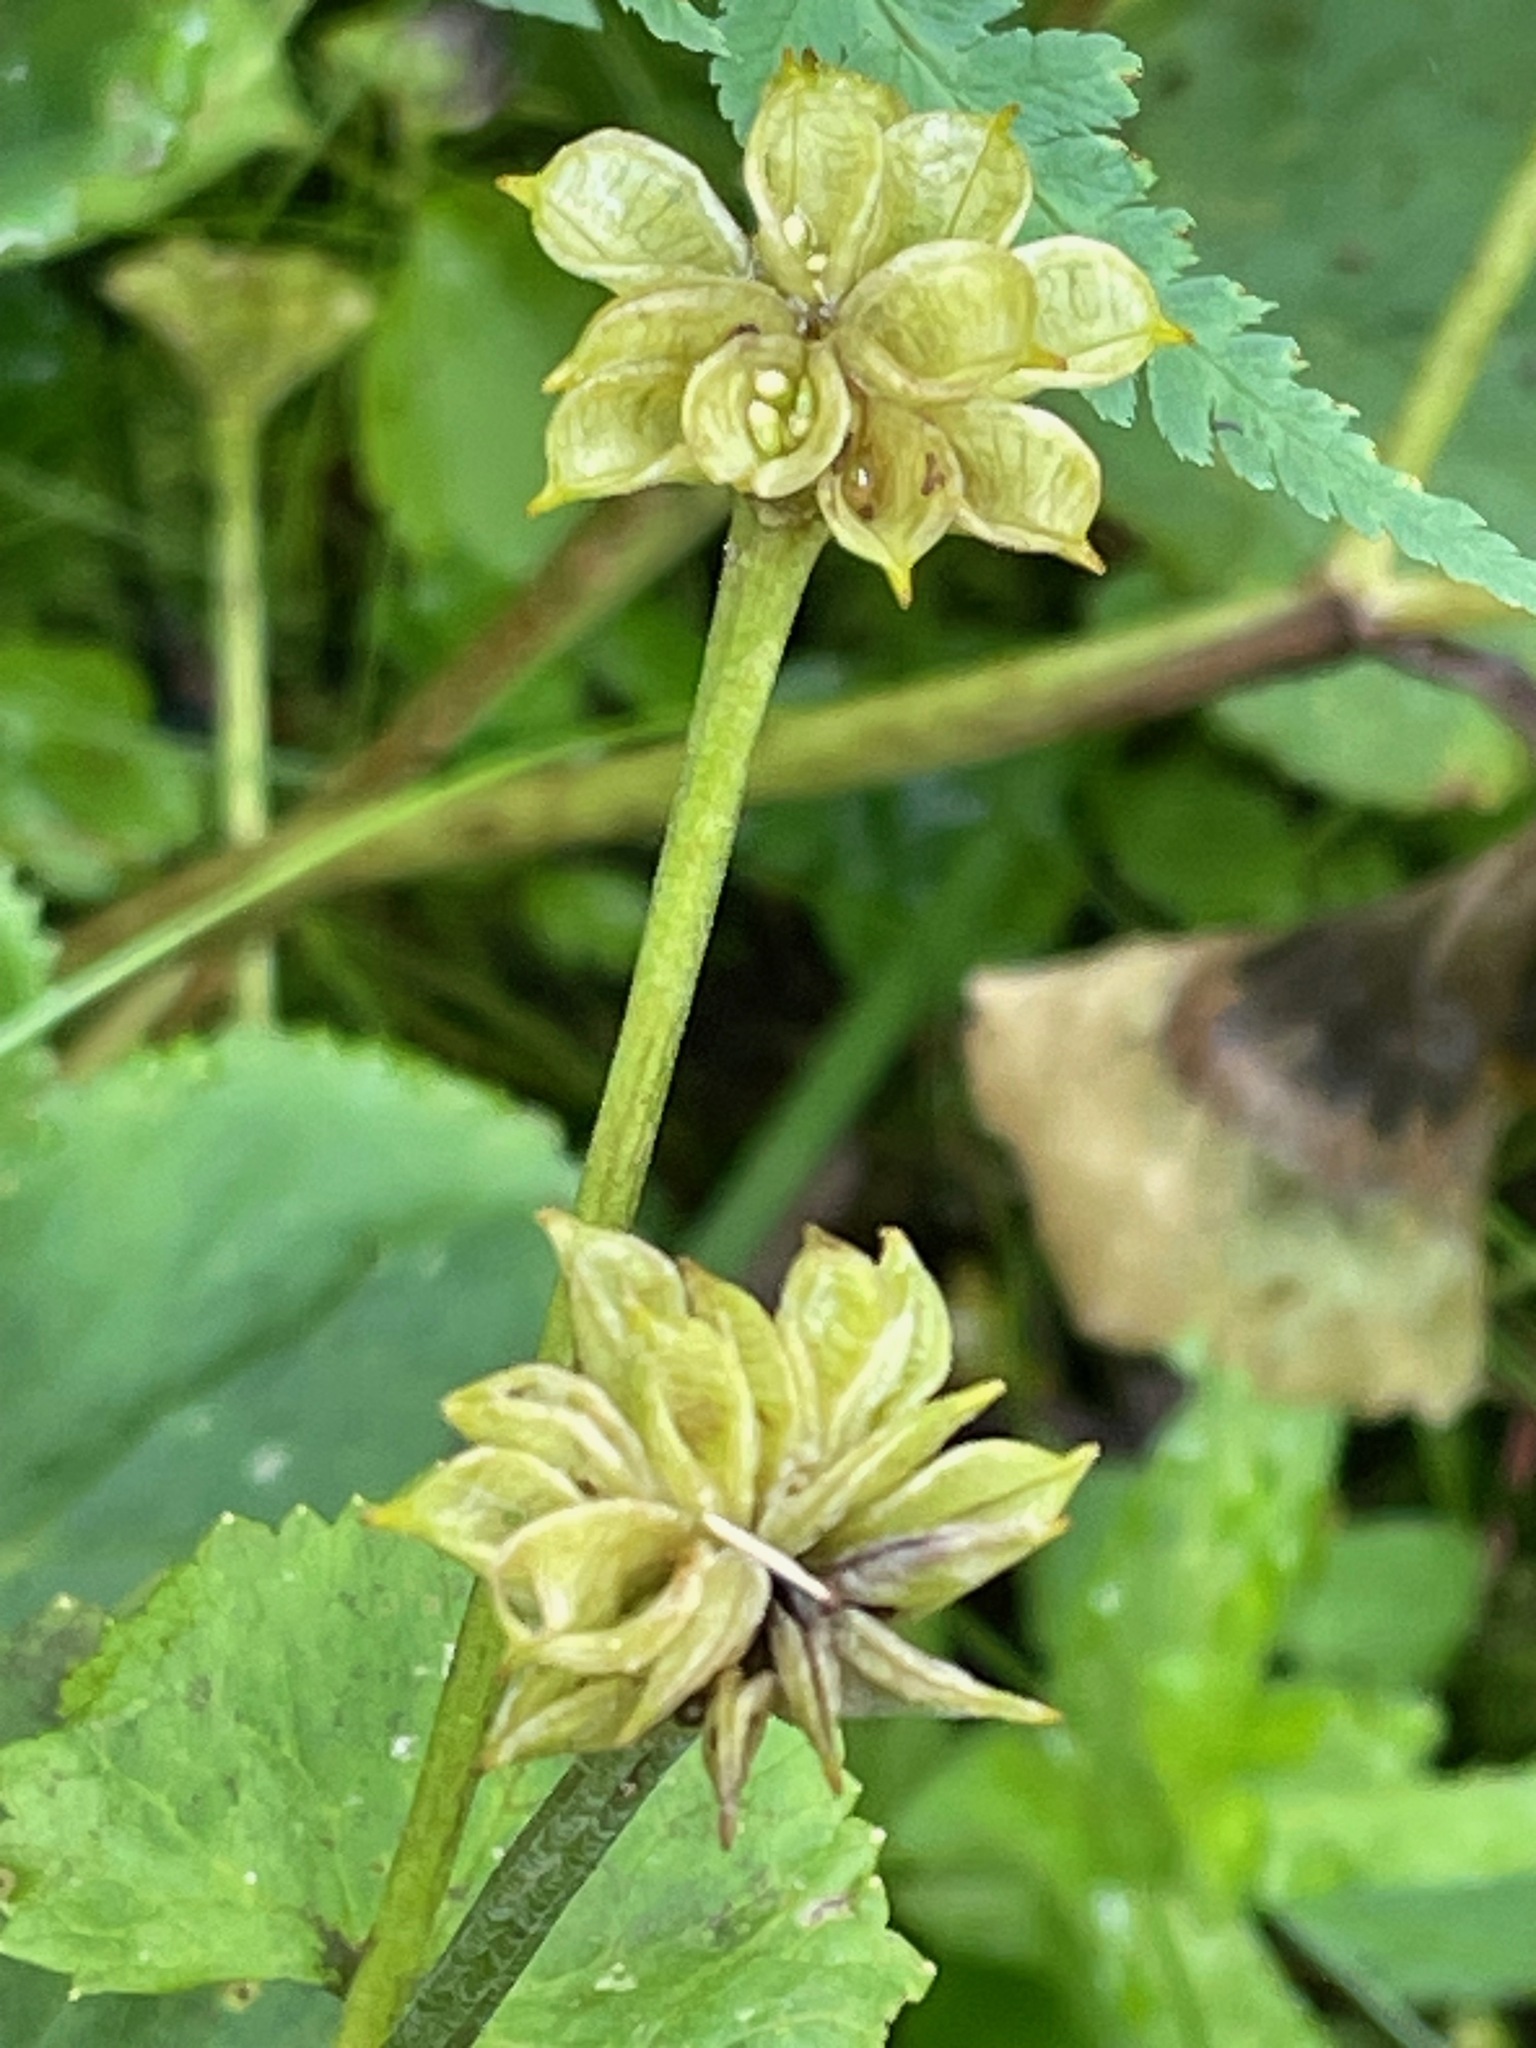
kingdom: Plantae
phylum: Tracheophyta
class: Magnoliopsida
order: Ranunculales
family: Ranunculaceae
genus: Caltha
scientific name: Caltha palustris
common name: Marsh marigold
